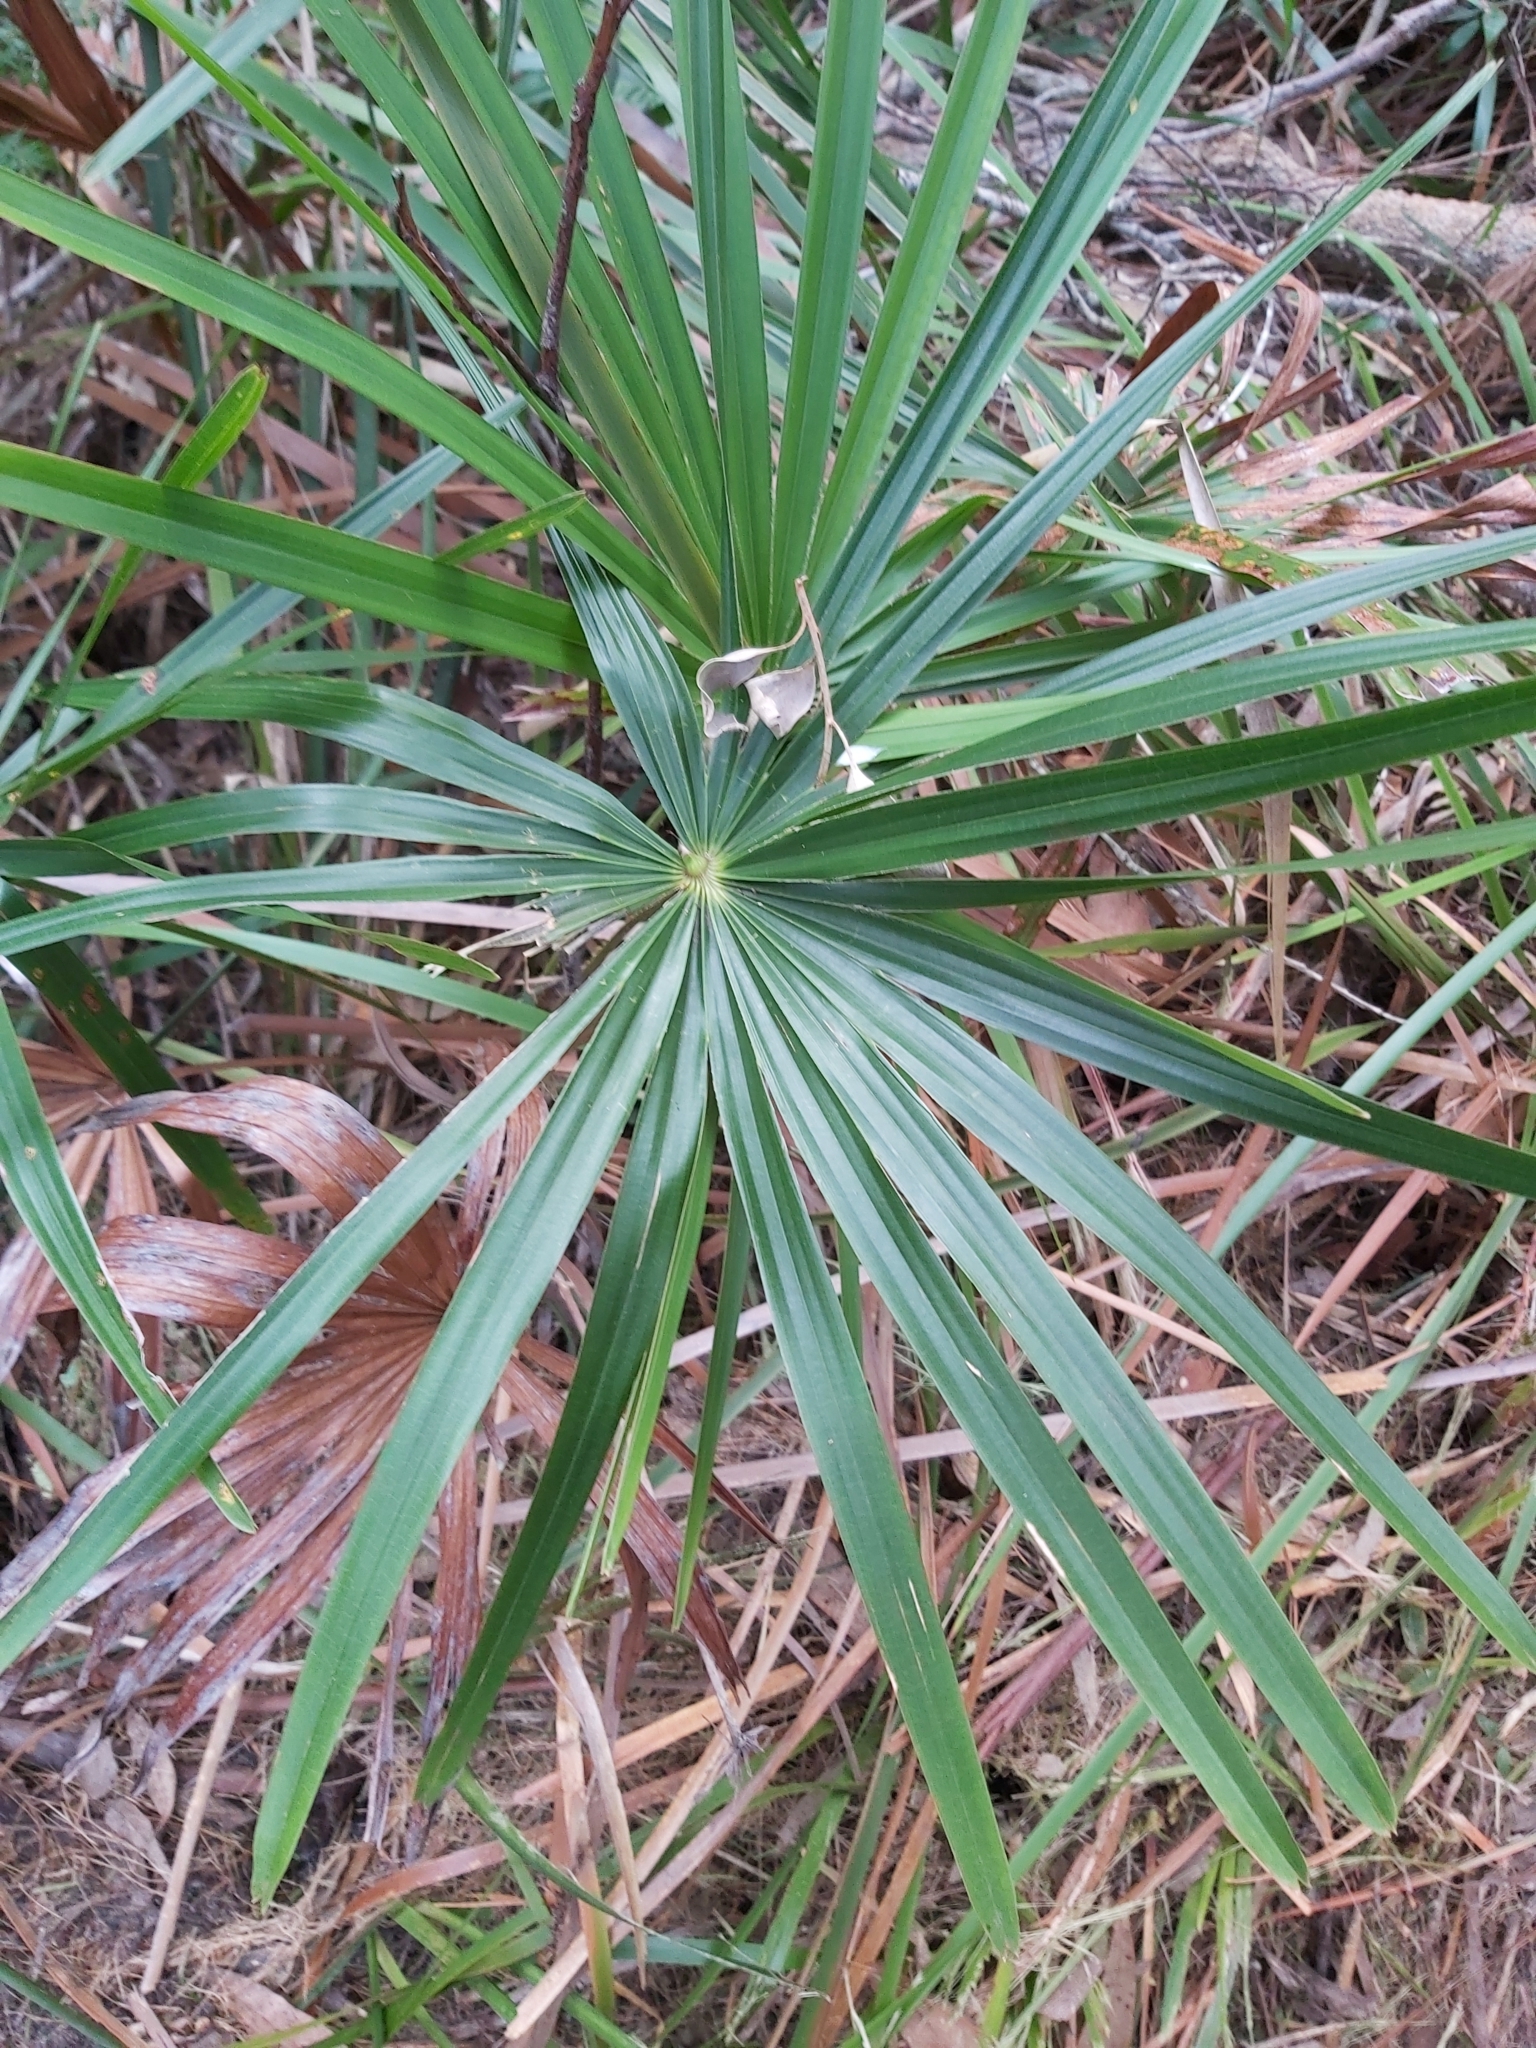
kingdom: Plantae
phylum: Tracheophyta
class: Liliopsida
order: Arecales
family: Arecaceae
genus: Livistona
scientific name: Livistona australis
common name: Cabbage fan palm
